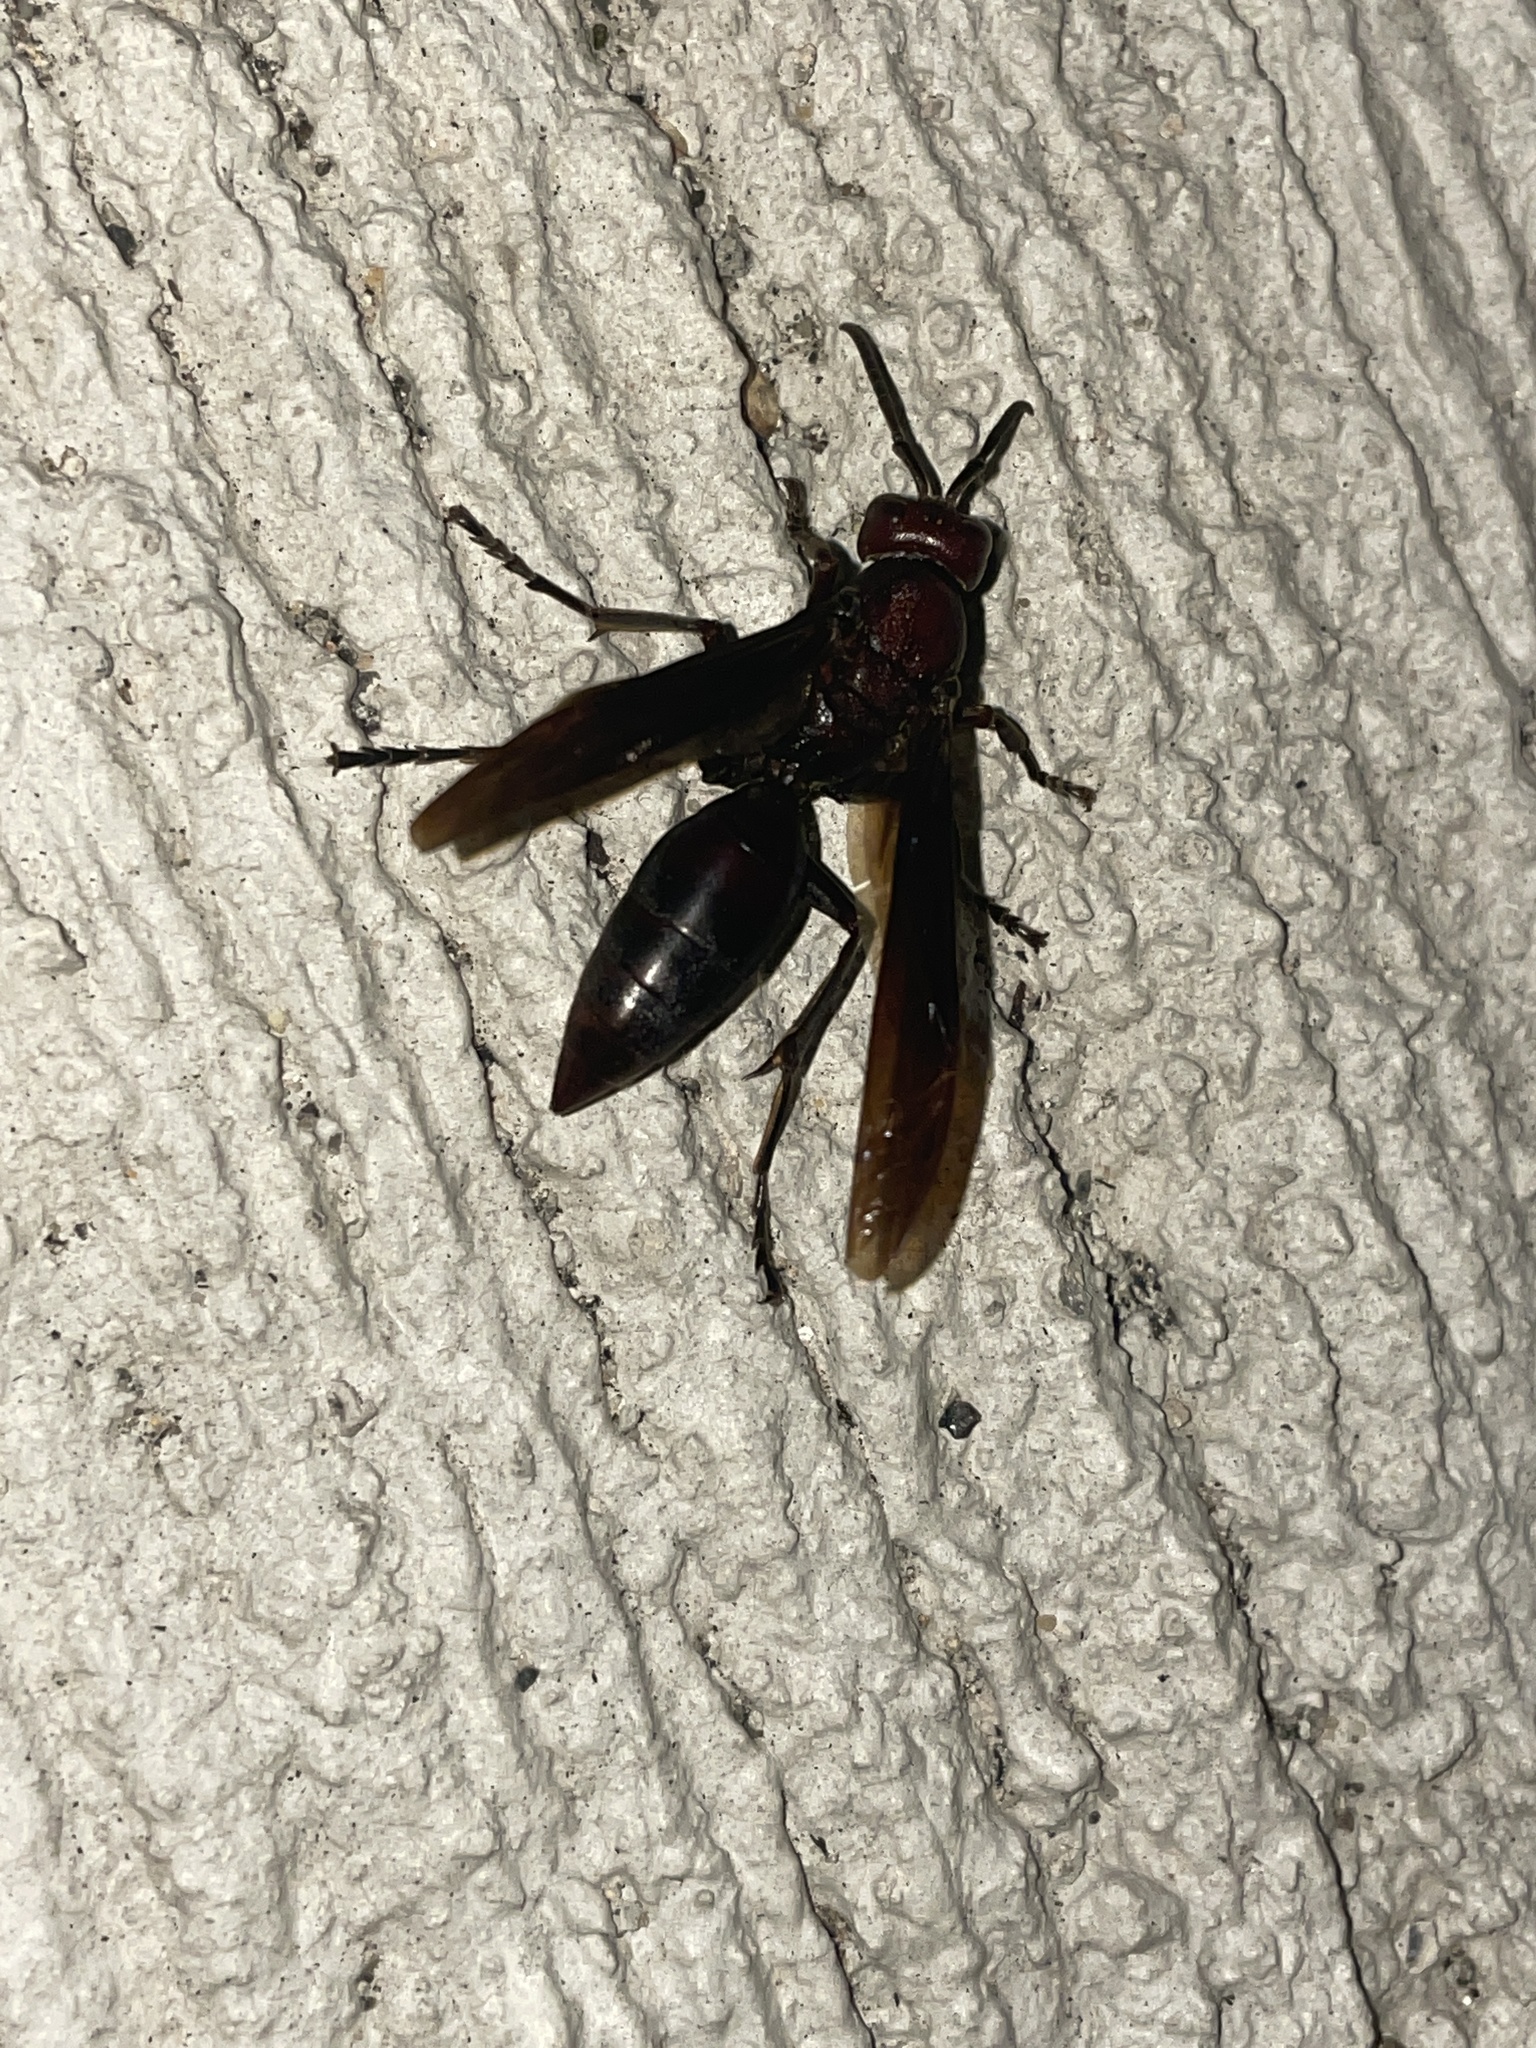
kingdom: Animalia
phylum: Arthropoda
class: Insecta
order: Hymenoptera
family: Eumenidae
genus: Polistes
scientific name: Polistes gigas
